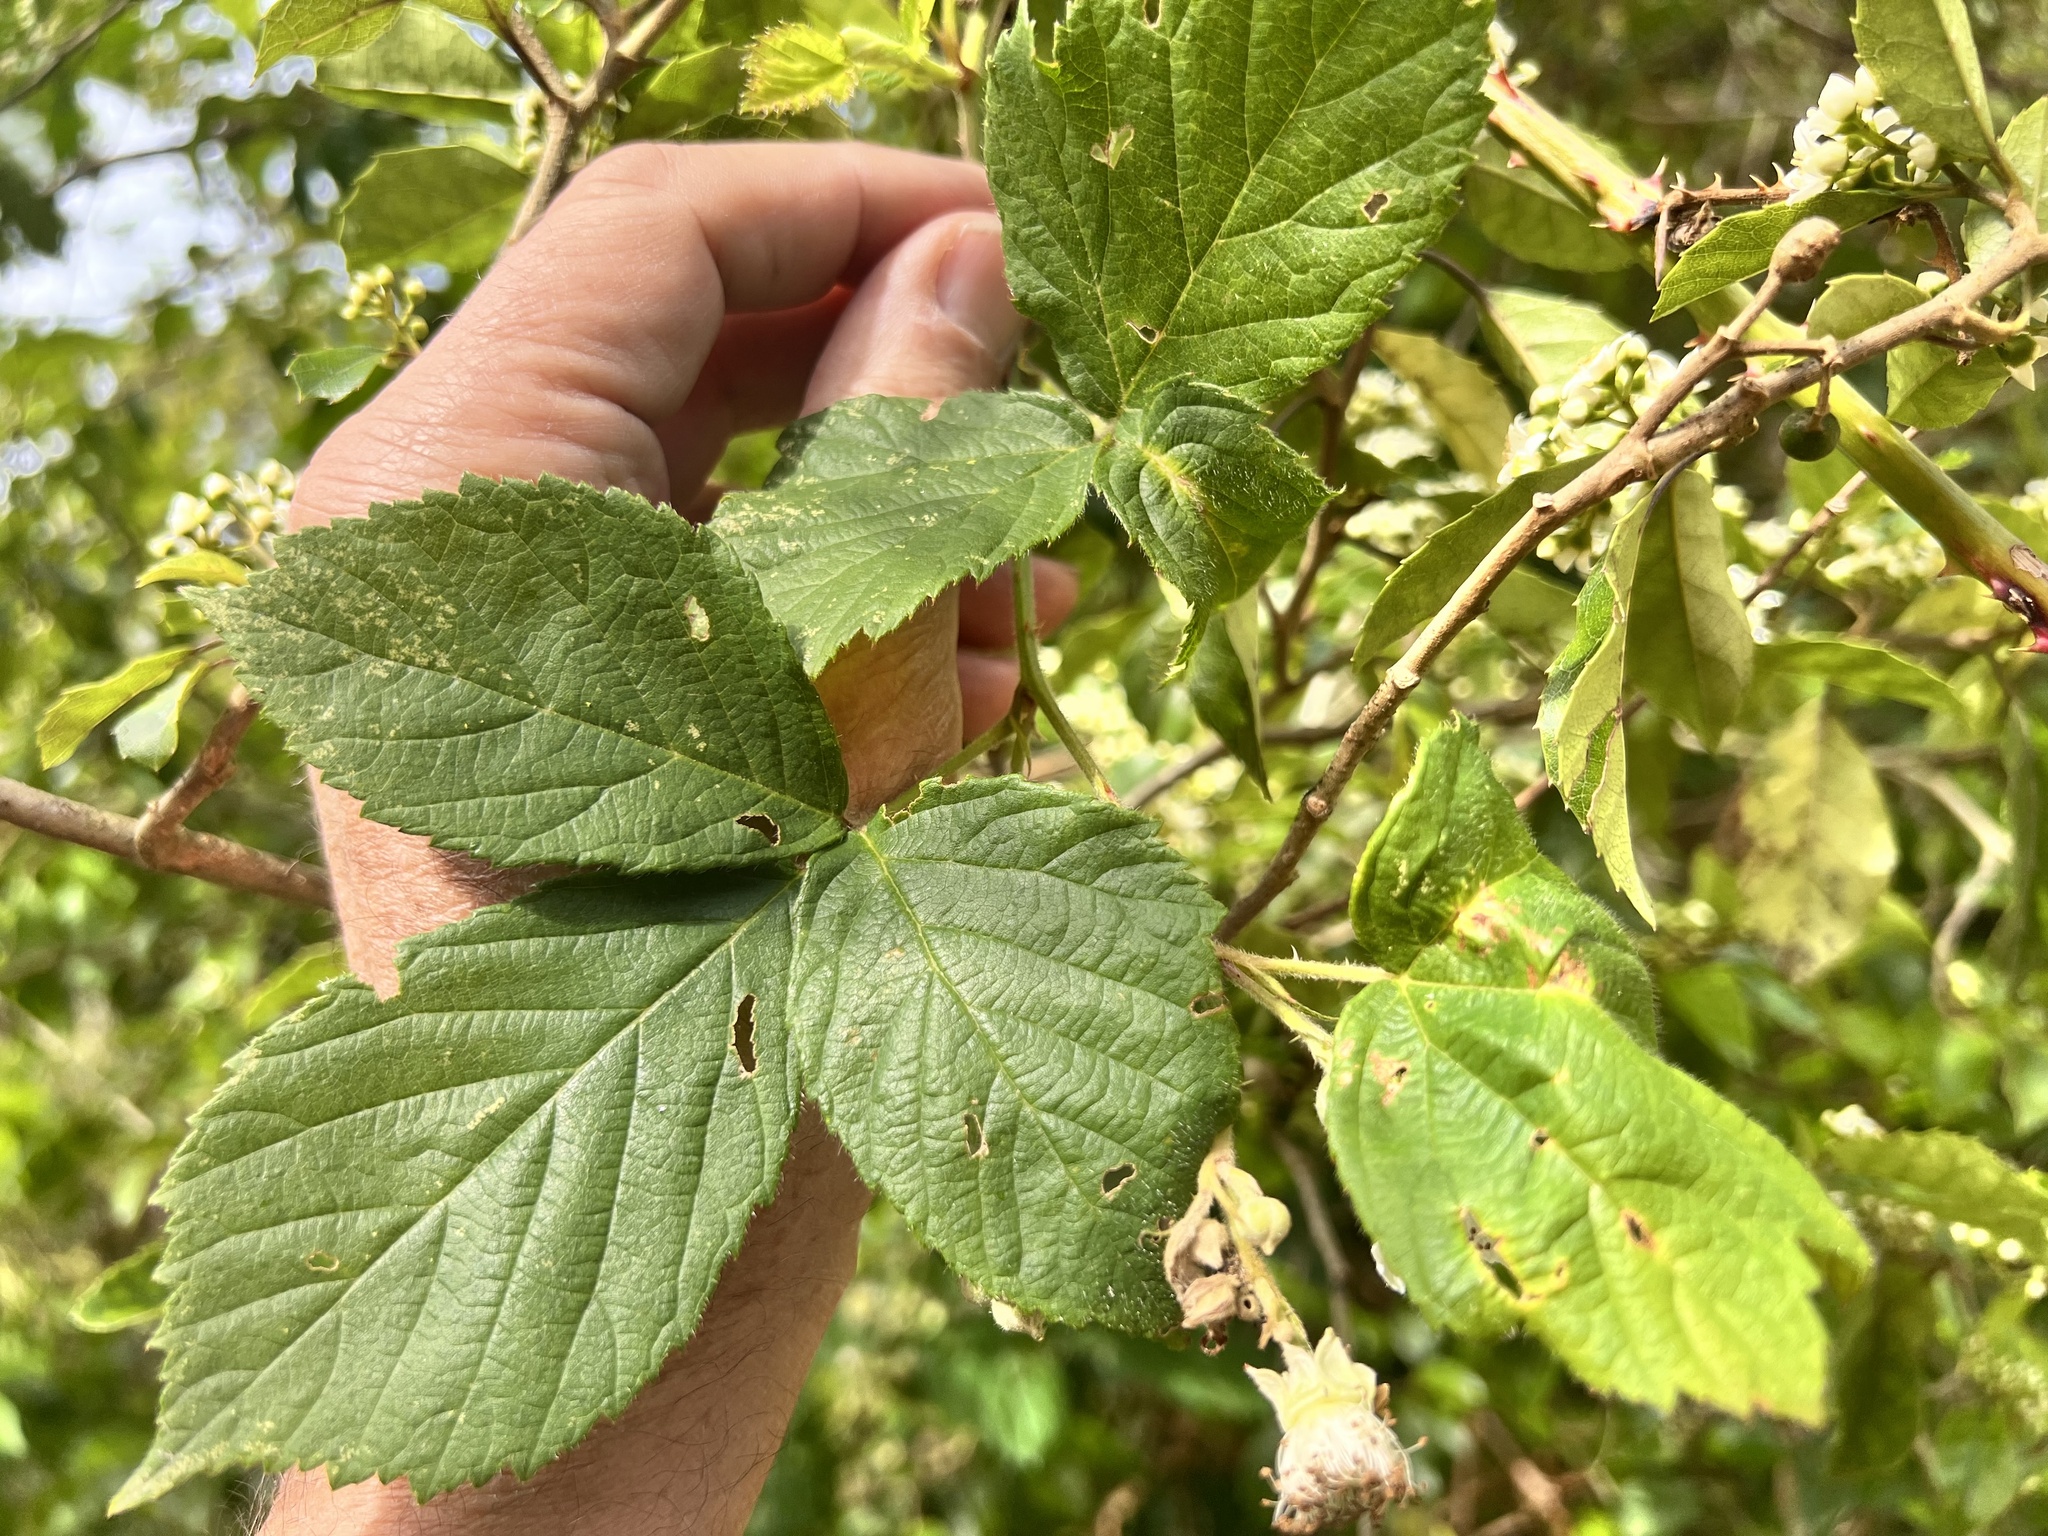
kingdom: Plantae
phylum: Tracheophyta
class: Magnoliopsida
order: Rosales
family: Rosaceae
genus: Rubus
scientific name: Rubus fruticosus
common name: Blackberry, bramble
